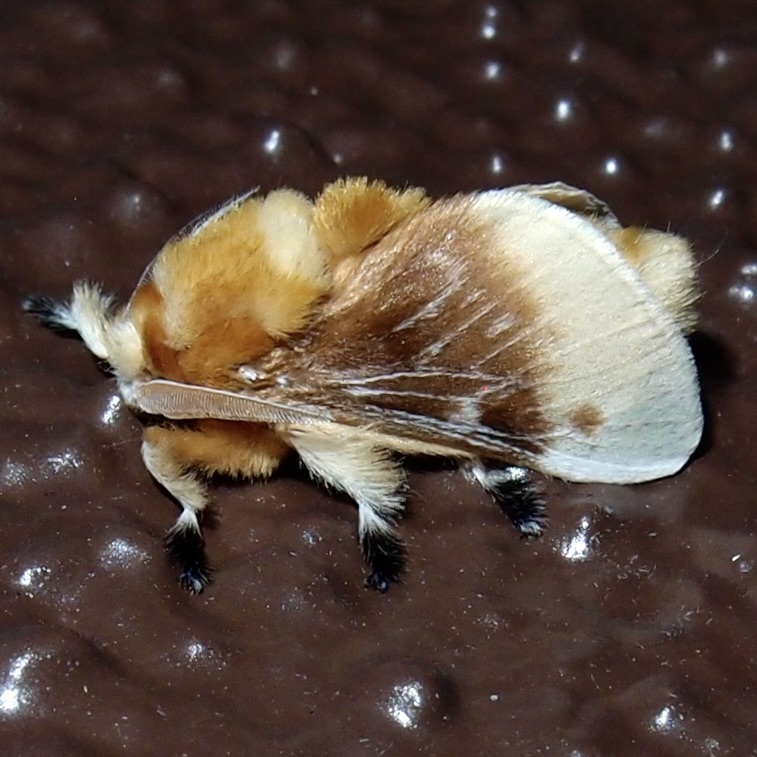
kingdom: Animalia
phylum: Arthropoda
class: Insecta
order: Lepidoptera
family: Megalopygidae
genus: Megalopyge
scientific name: Megalopyge opercularis
